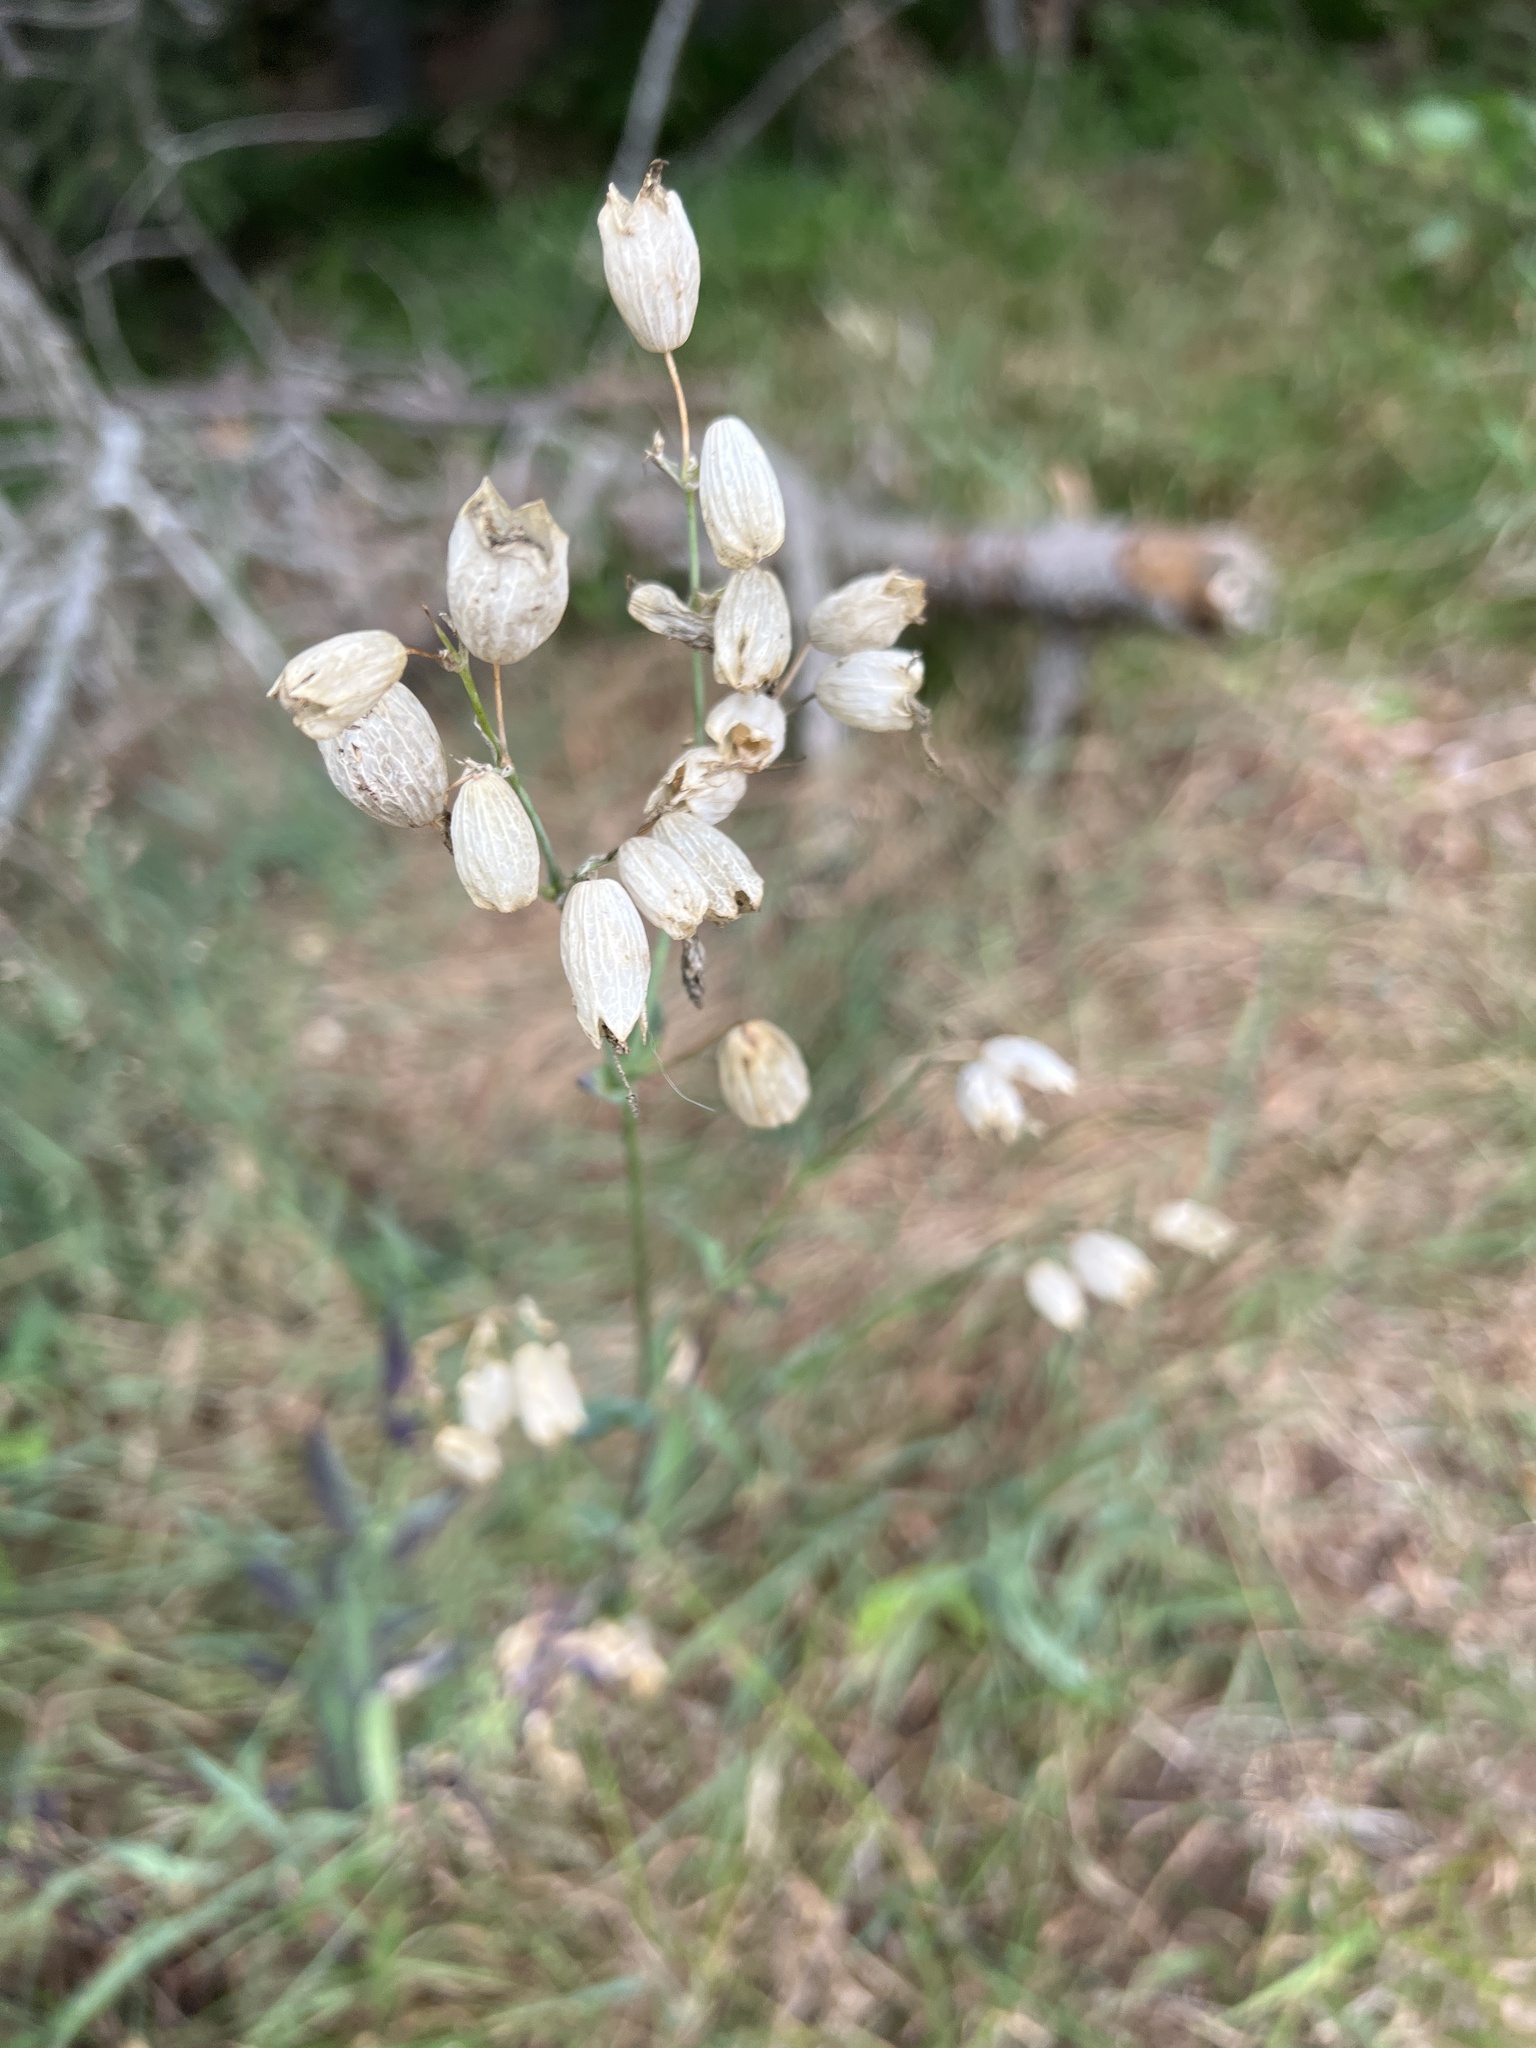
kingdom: Plantae
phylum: Tracheophyta
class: Magnoliopsida
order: Caryophyllales
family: Caryophyllaceae
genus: Silene
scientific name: Silene vulgaris
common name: Bladder campion
